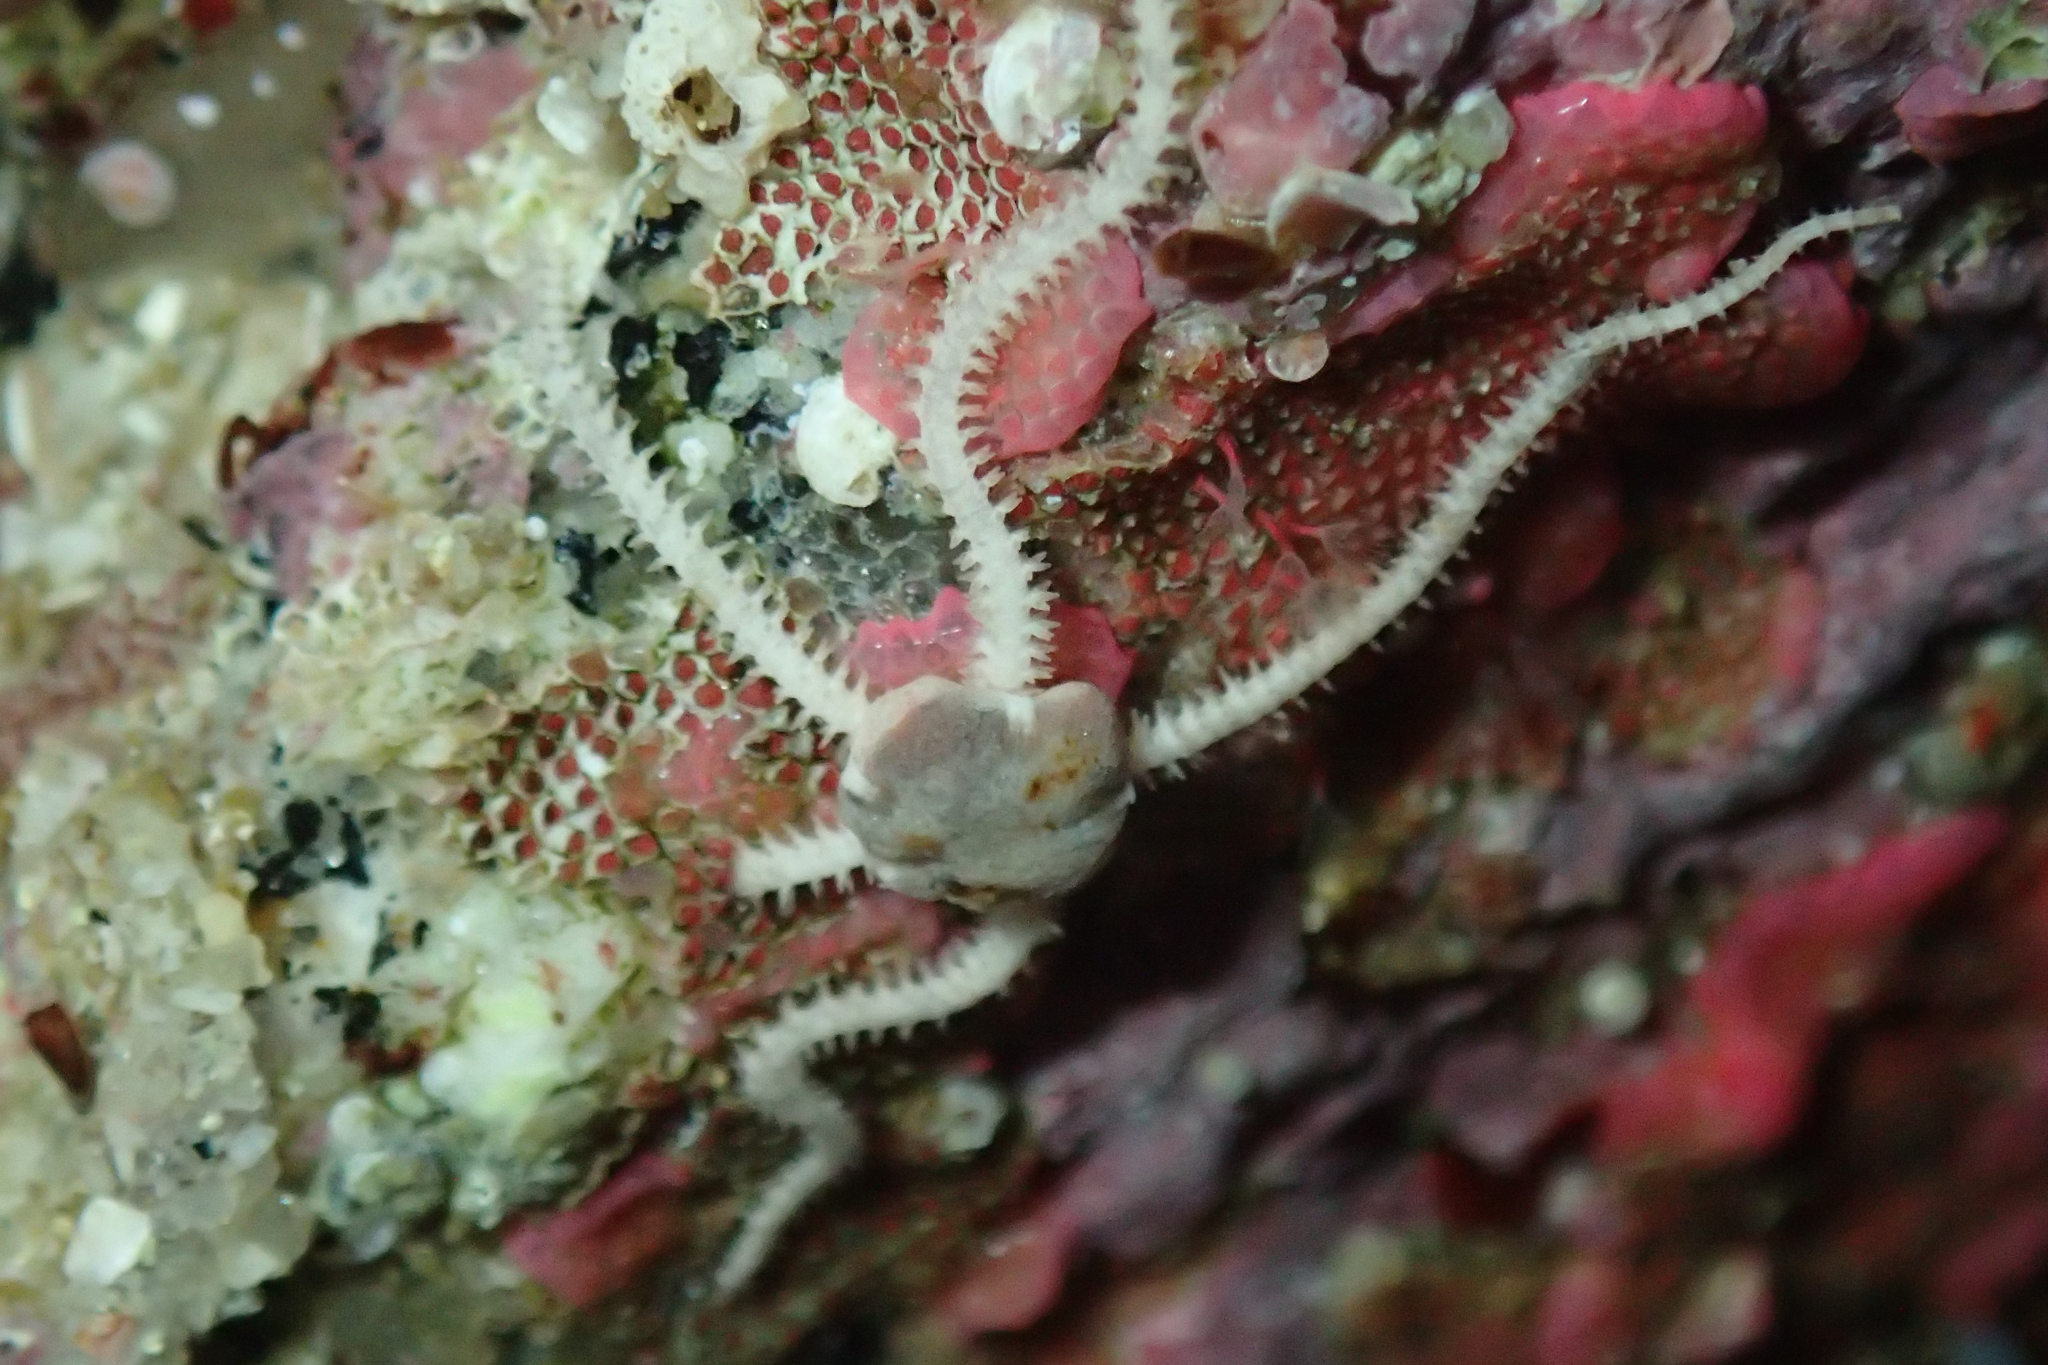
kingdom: Animalia
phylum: Echinodermata
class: Ophiuroidea
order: Amphilepidida
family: Amphiuridae
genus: Amphipholis
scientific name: Amphipholis squamata
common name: Brooding snake star
